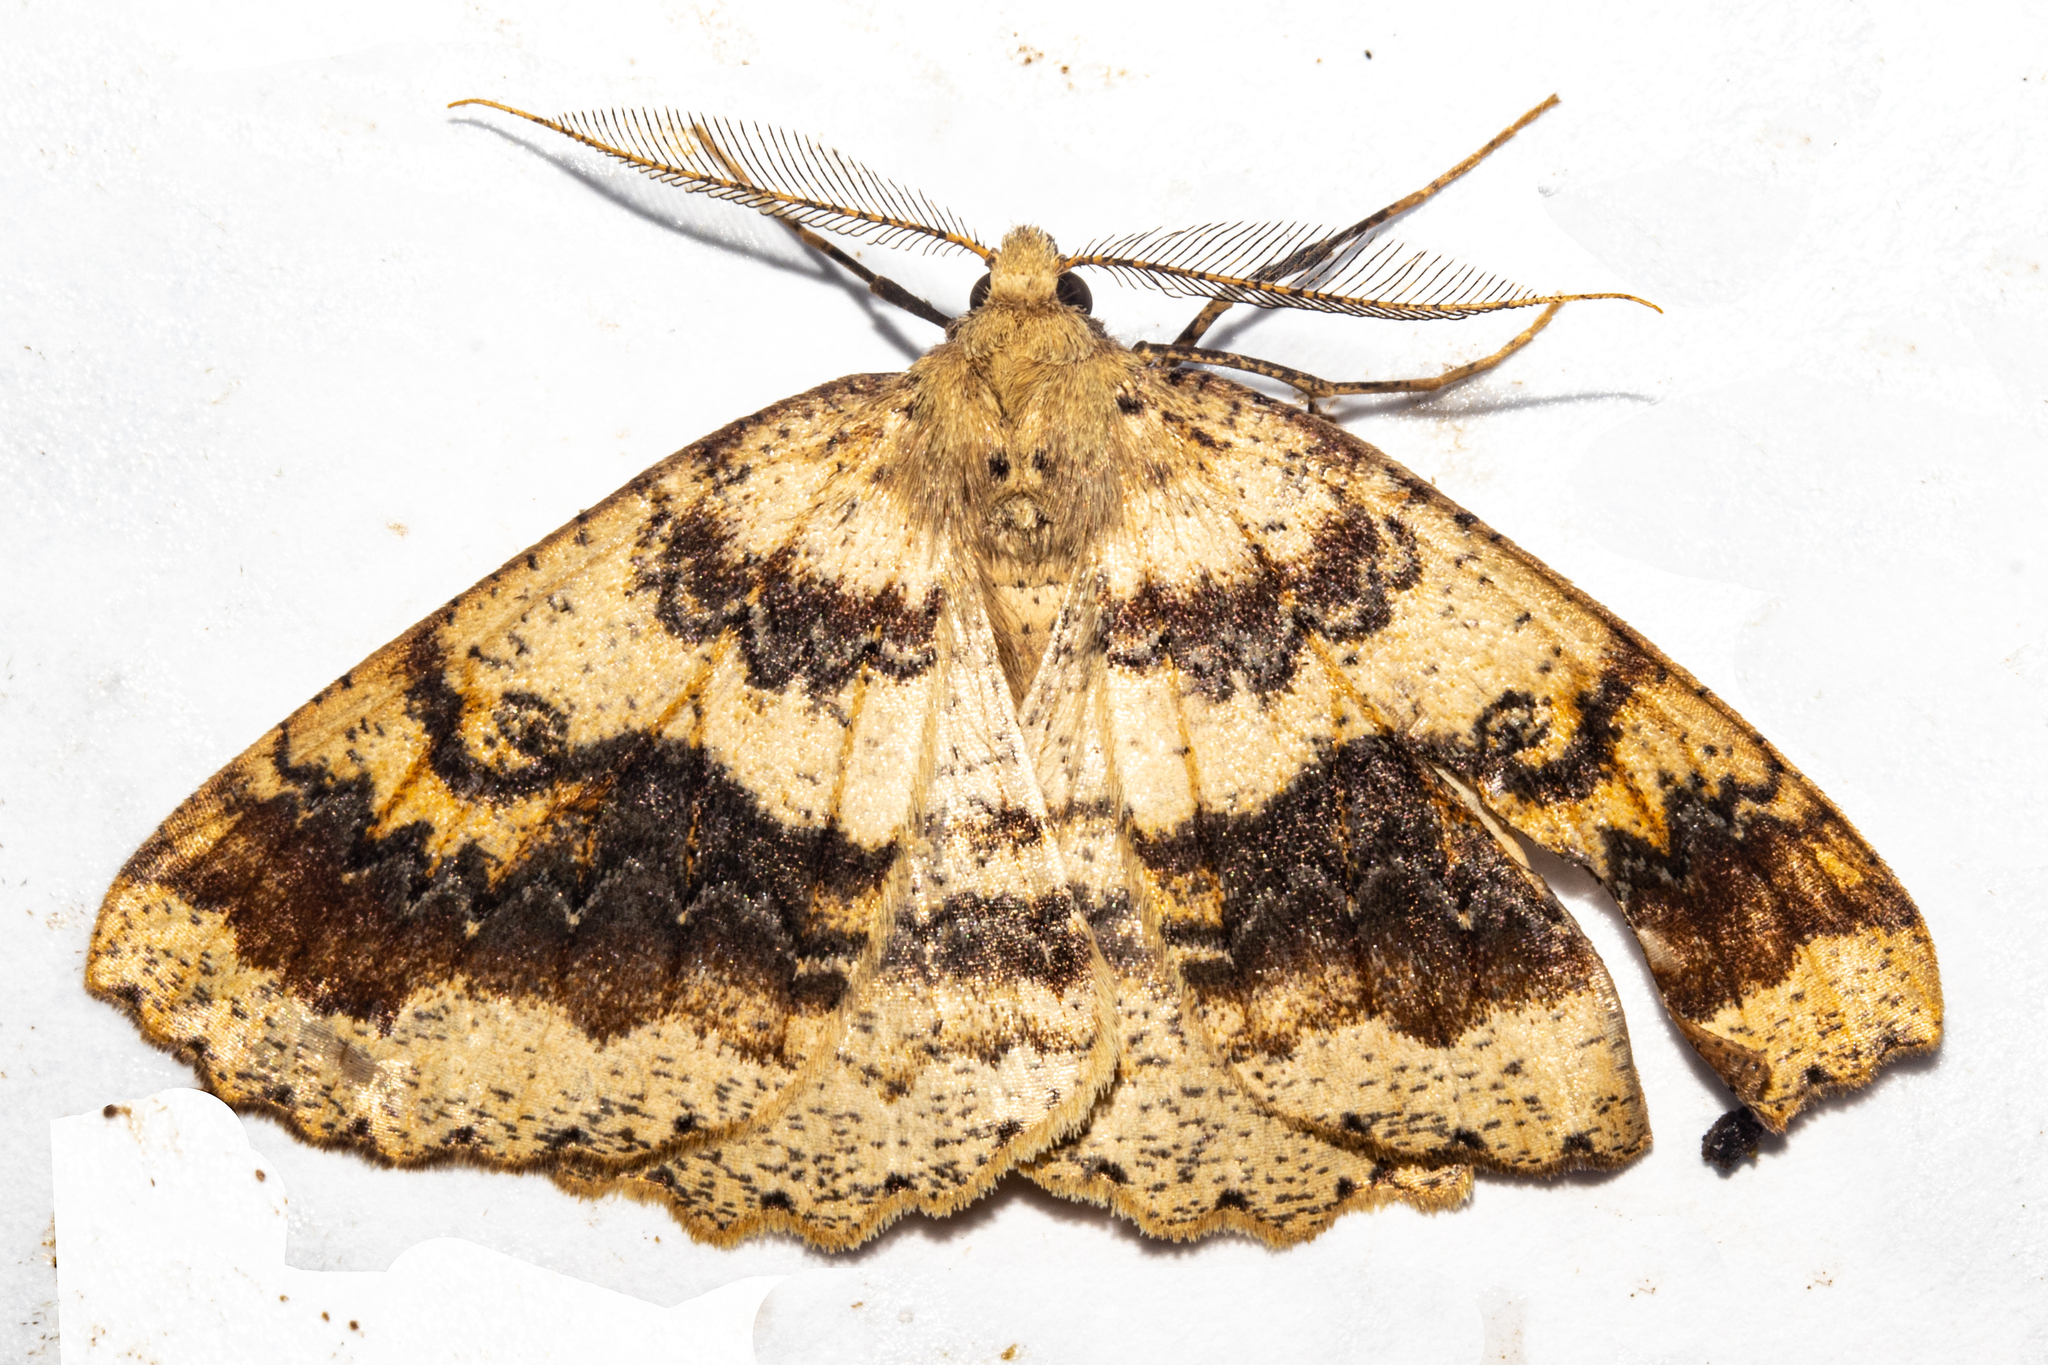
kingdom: Animalia
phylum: Arthropoda
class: Insecta
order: Lepidoptera
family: Geometridae
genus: Cleora
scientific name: Cleora scriptaria
